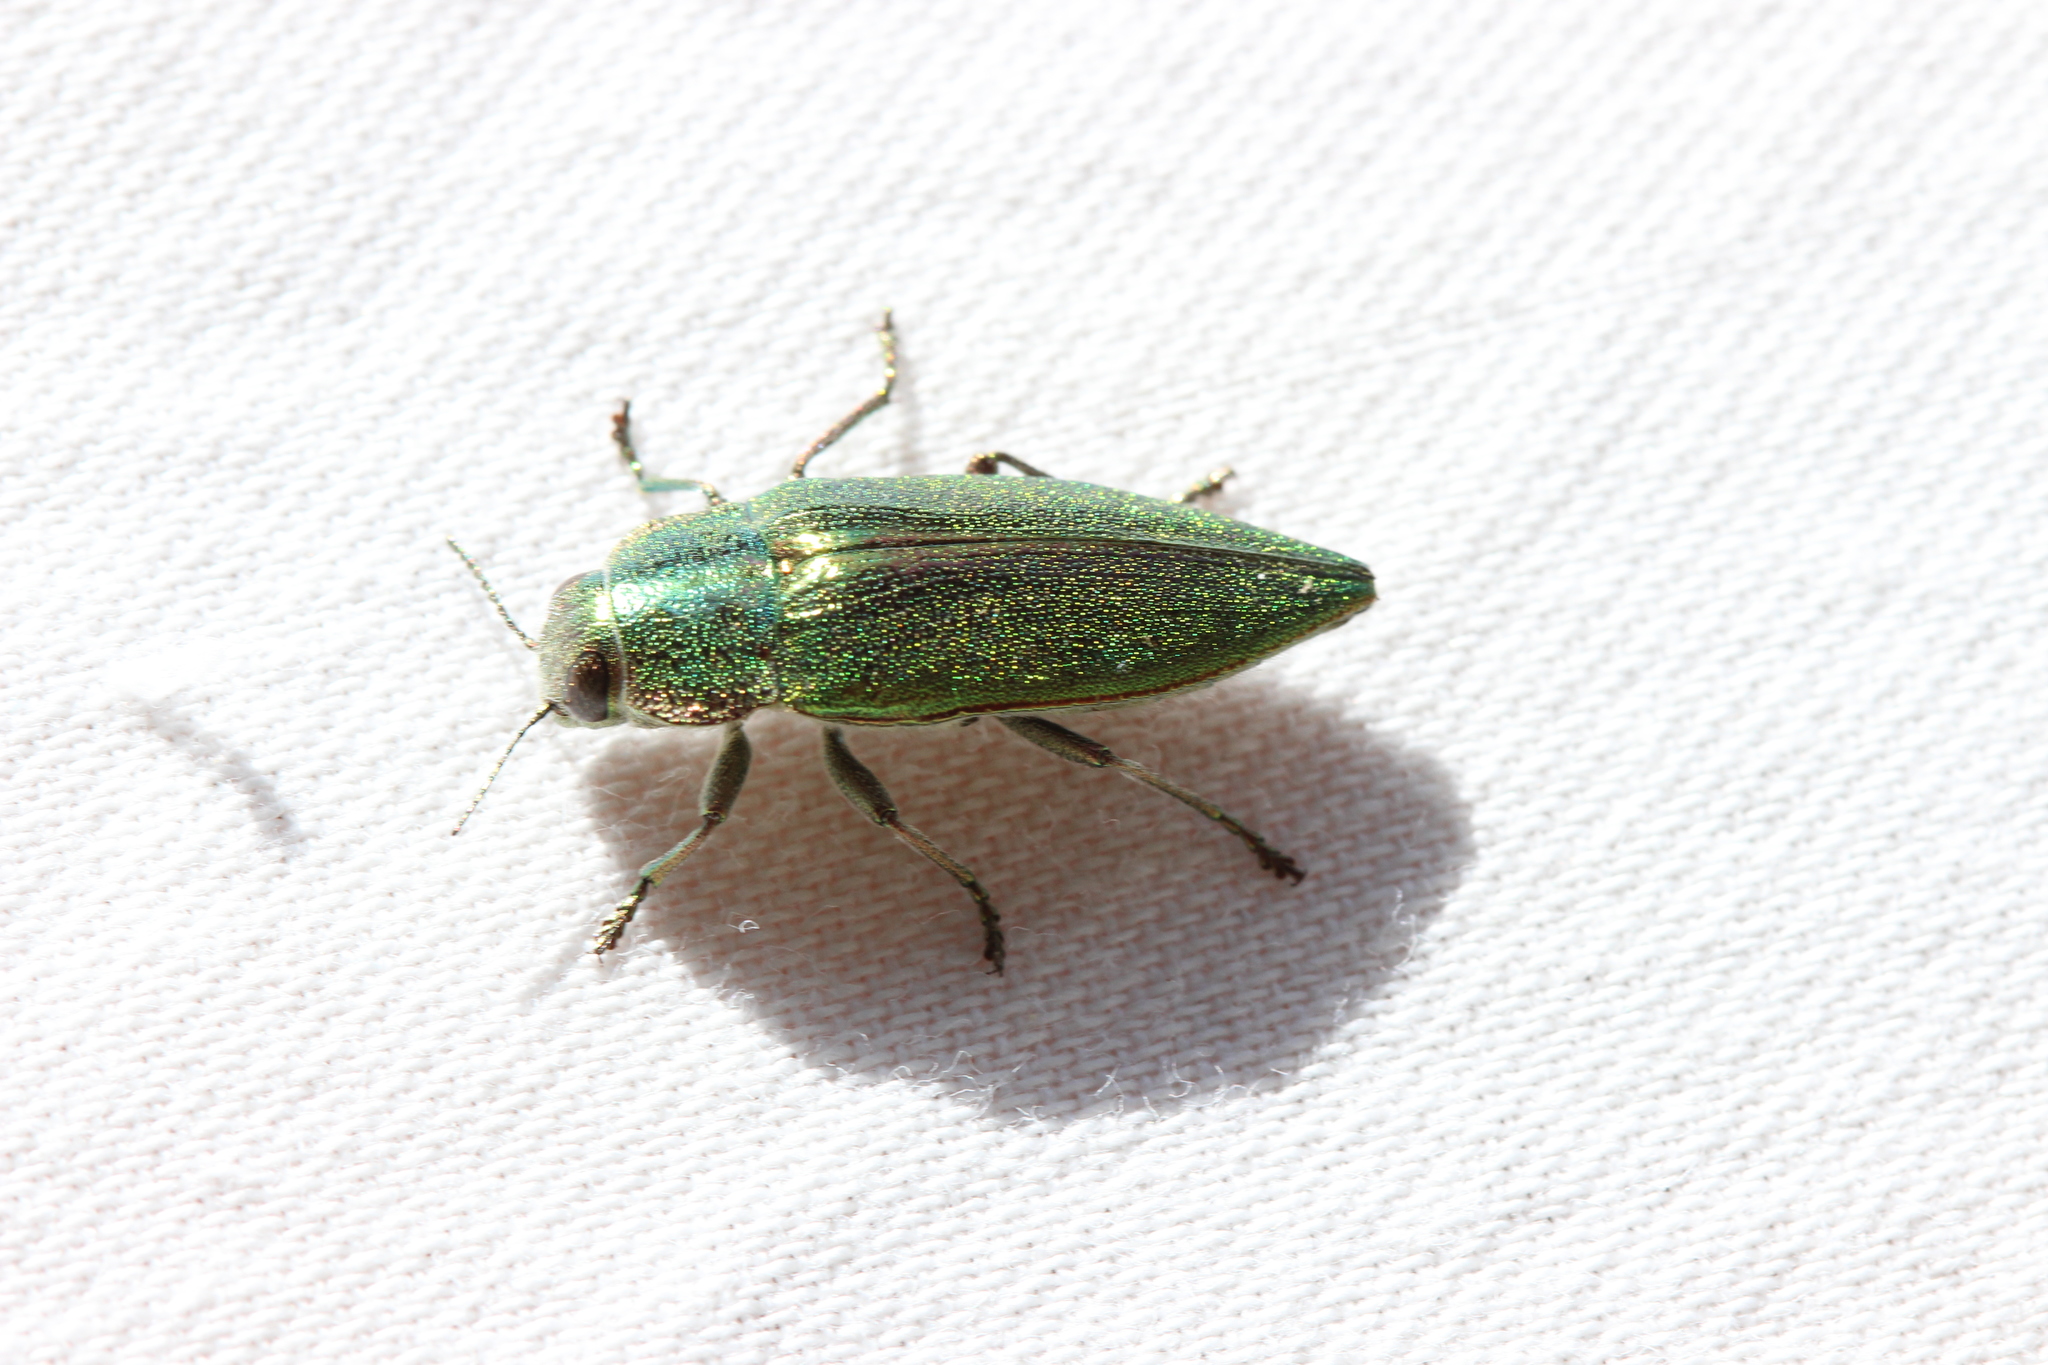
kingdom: Animalia
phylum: Arthropoda
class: Insecta
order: Coleoptera
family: Buprestidae
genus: Latipalpis
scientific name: Latipalpis plana
